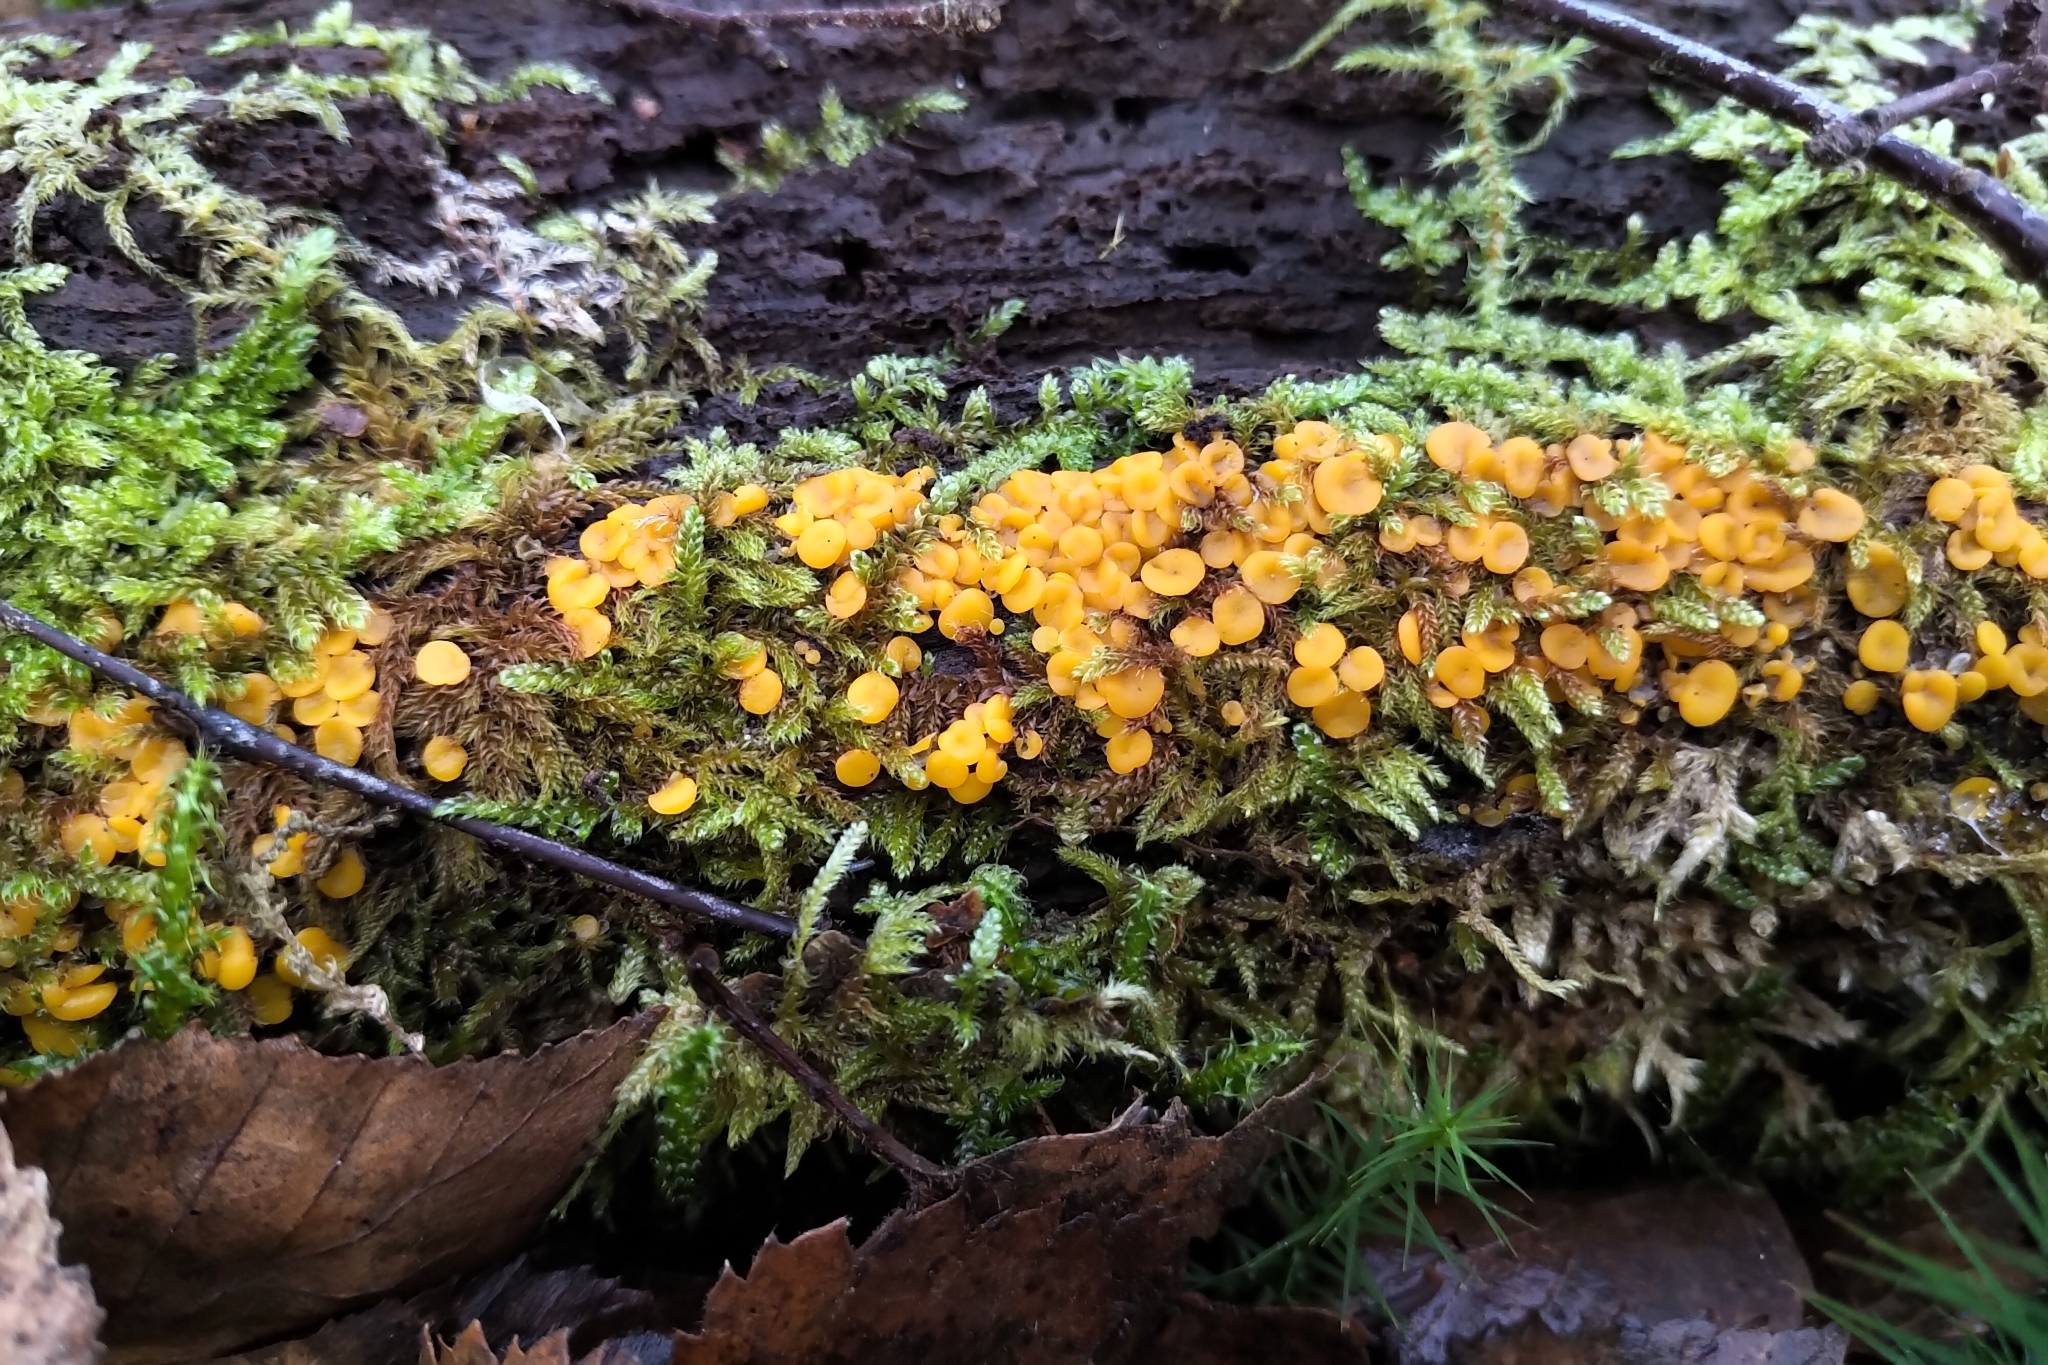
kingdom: Fungi
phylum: Ascomycota
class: Leotiomycetes
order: Helotiales
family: Pezizellaceae
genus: Calycina
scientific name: Calycina citrina
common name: Yellow fairy cups
